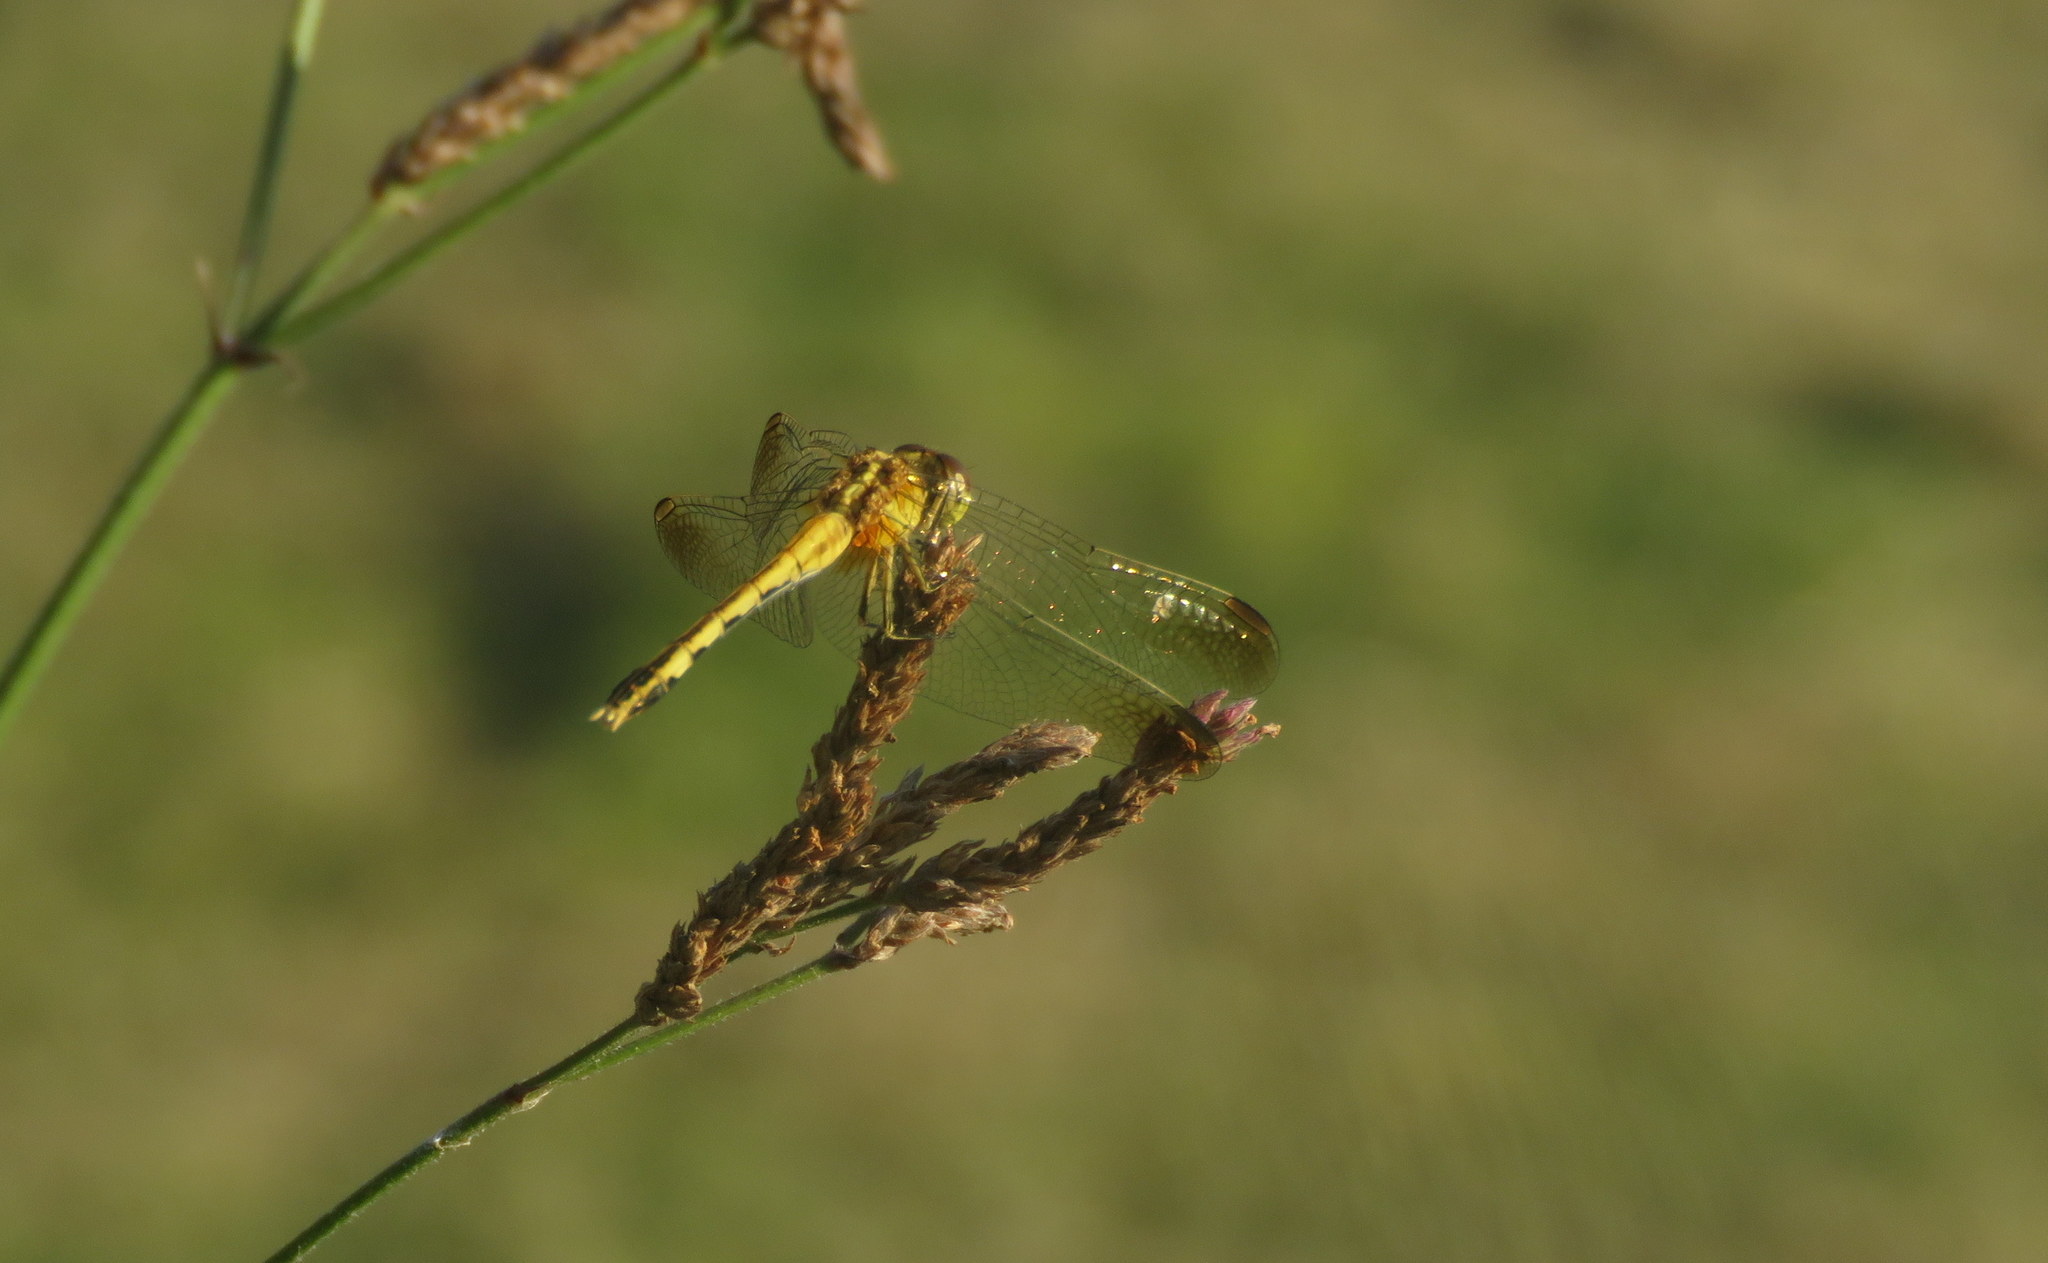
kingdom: Animalia
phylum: Arthropoda
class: Insecta
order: Odonata
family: Libellulidae
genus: Erythrodiplax
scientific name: Erythrodiplax nigricans
